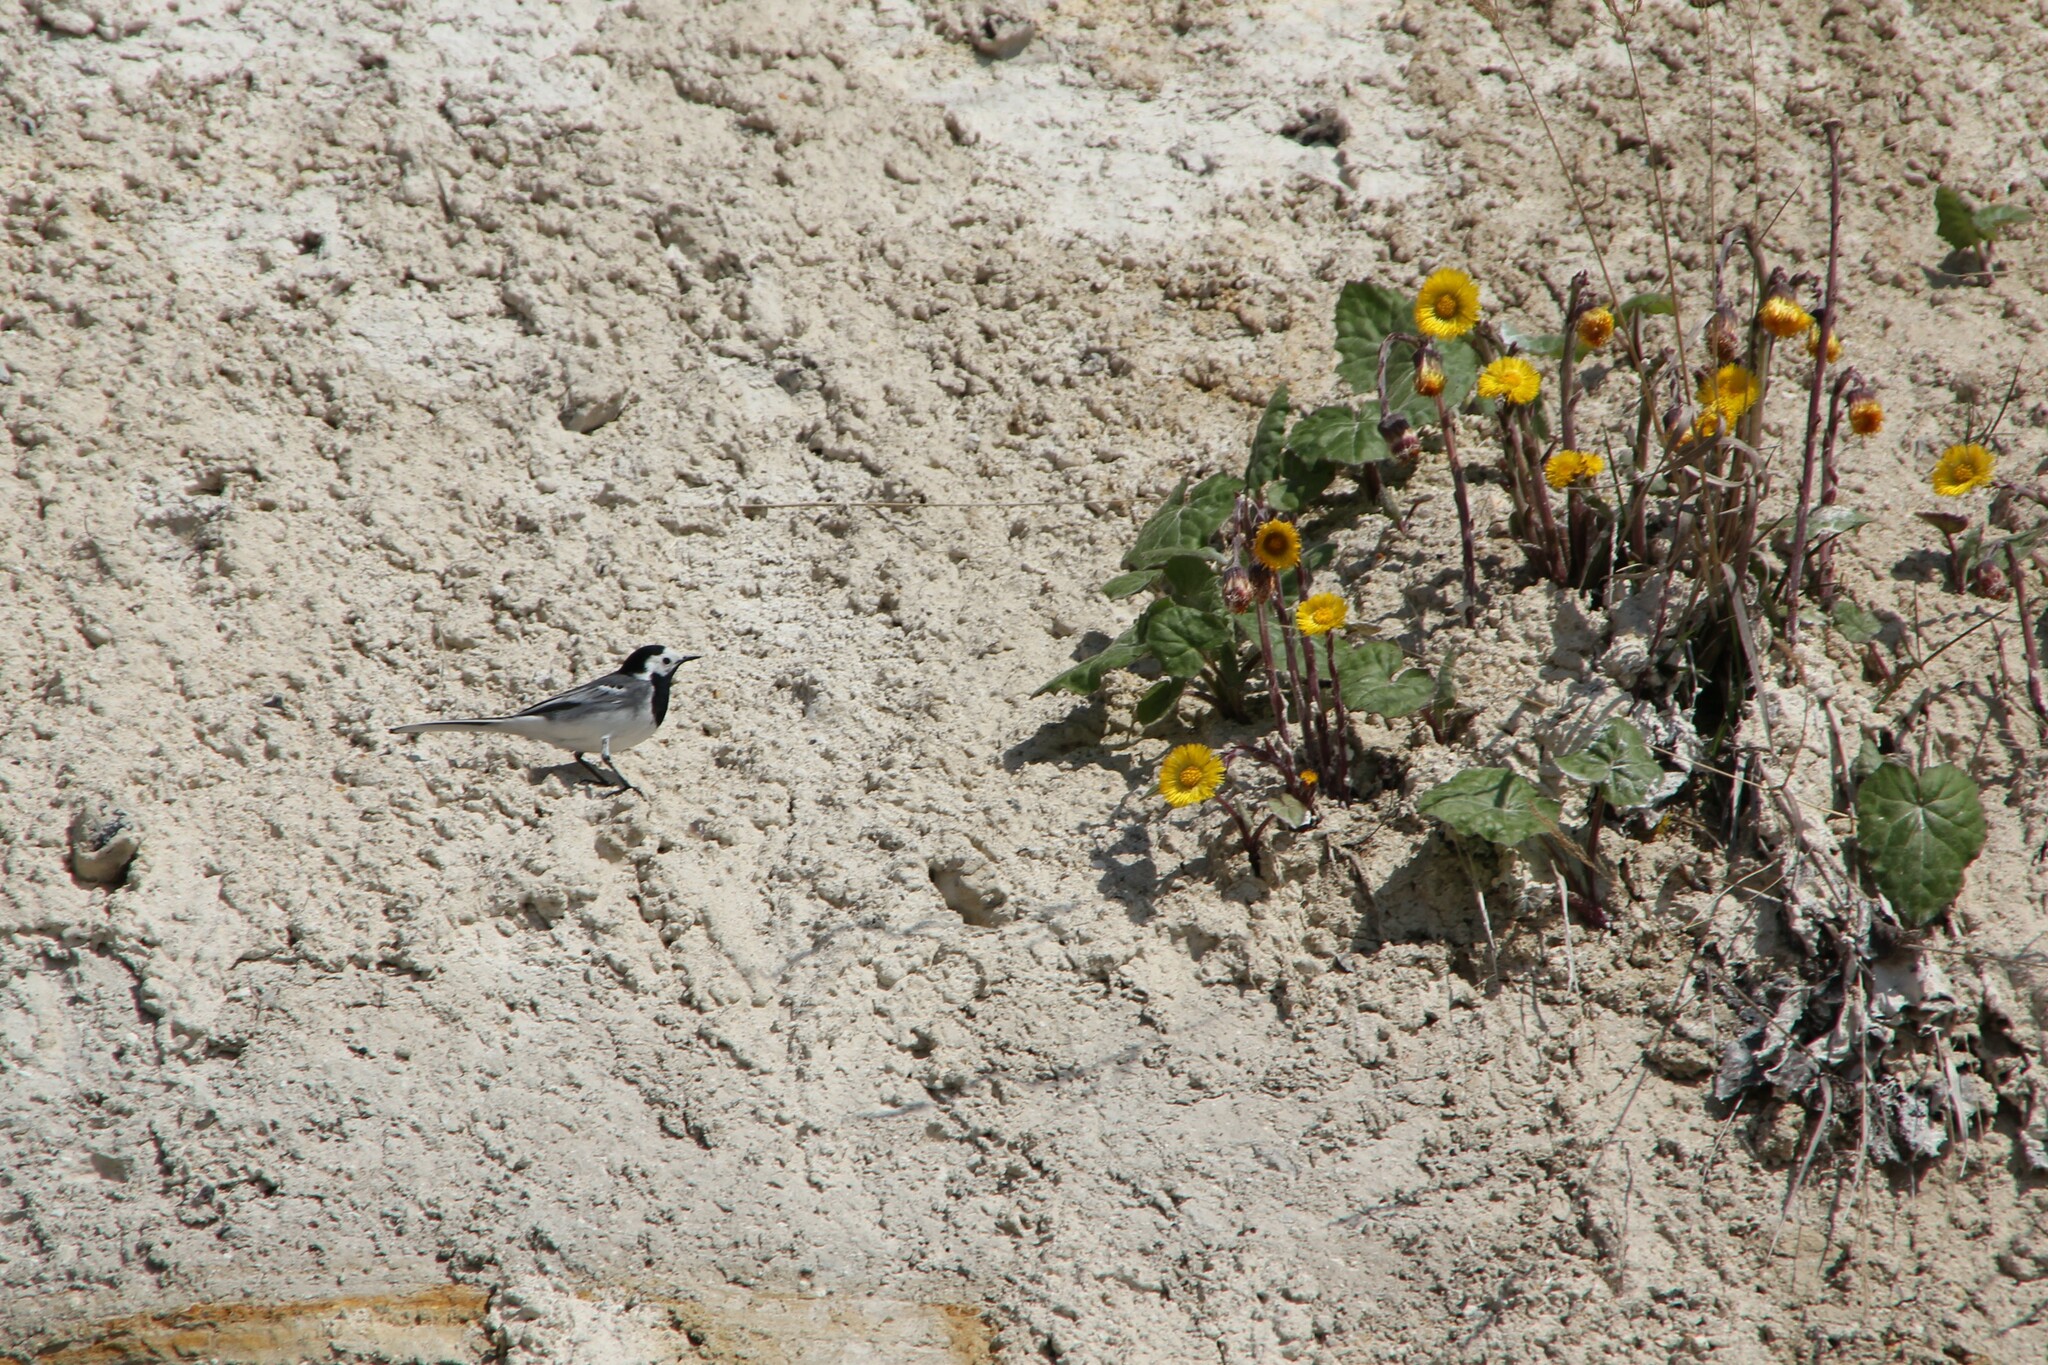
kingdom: Animalia
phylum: Chordata
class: Aves
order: Passeriformes
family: Motacillidae
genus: Motacilla
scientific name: Motacilla alba
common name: White wagtail
